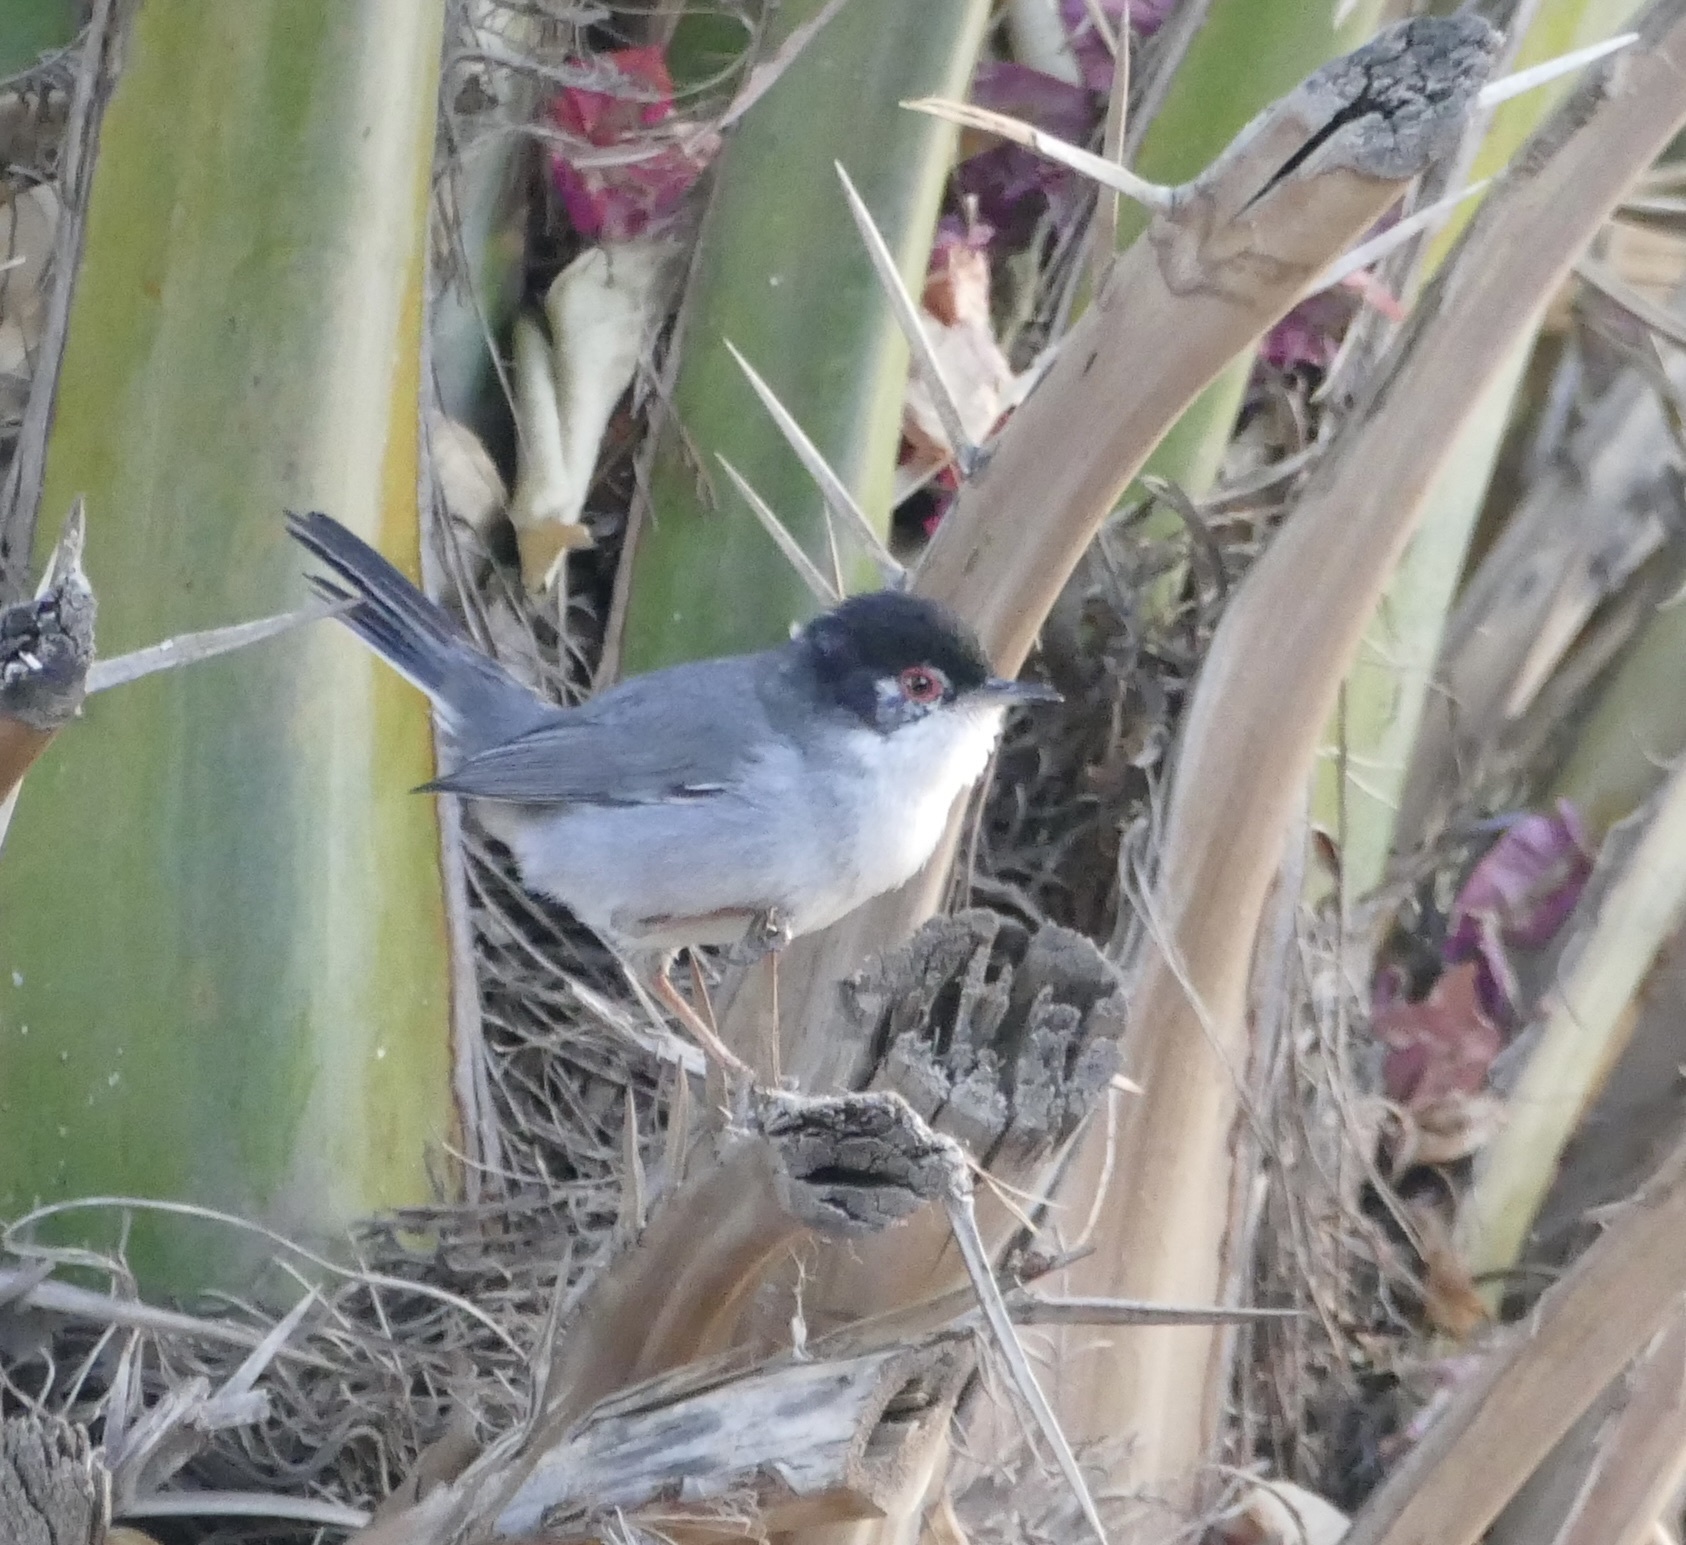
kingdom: Animalia
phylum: Chordata
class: Aves
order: Passeriformes
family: Sylviidae
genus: Curruca
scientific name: Curruca melanocephala
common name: Sardinian warbler
